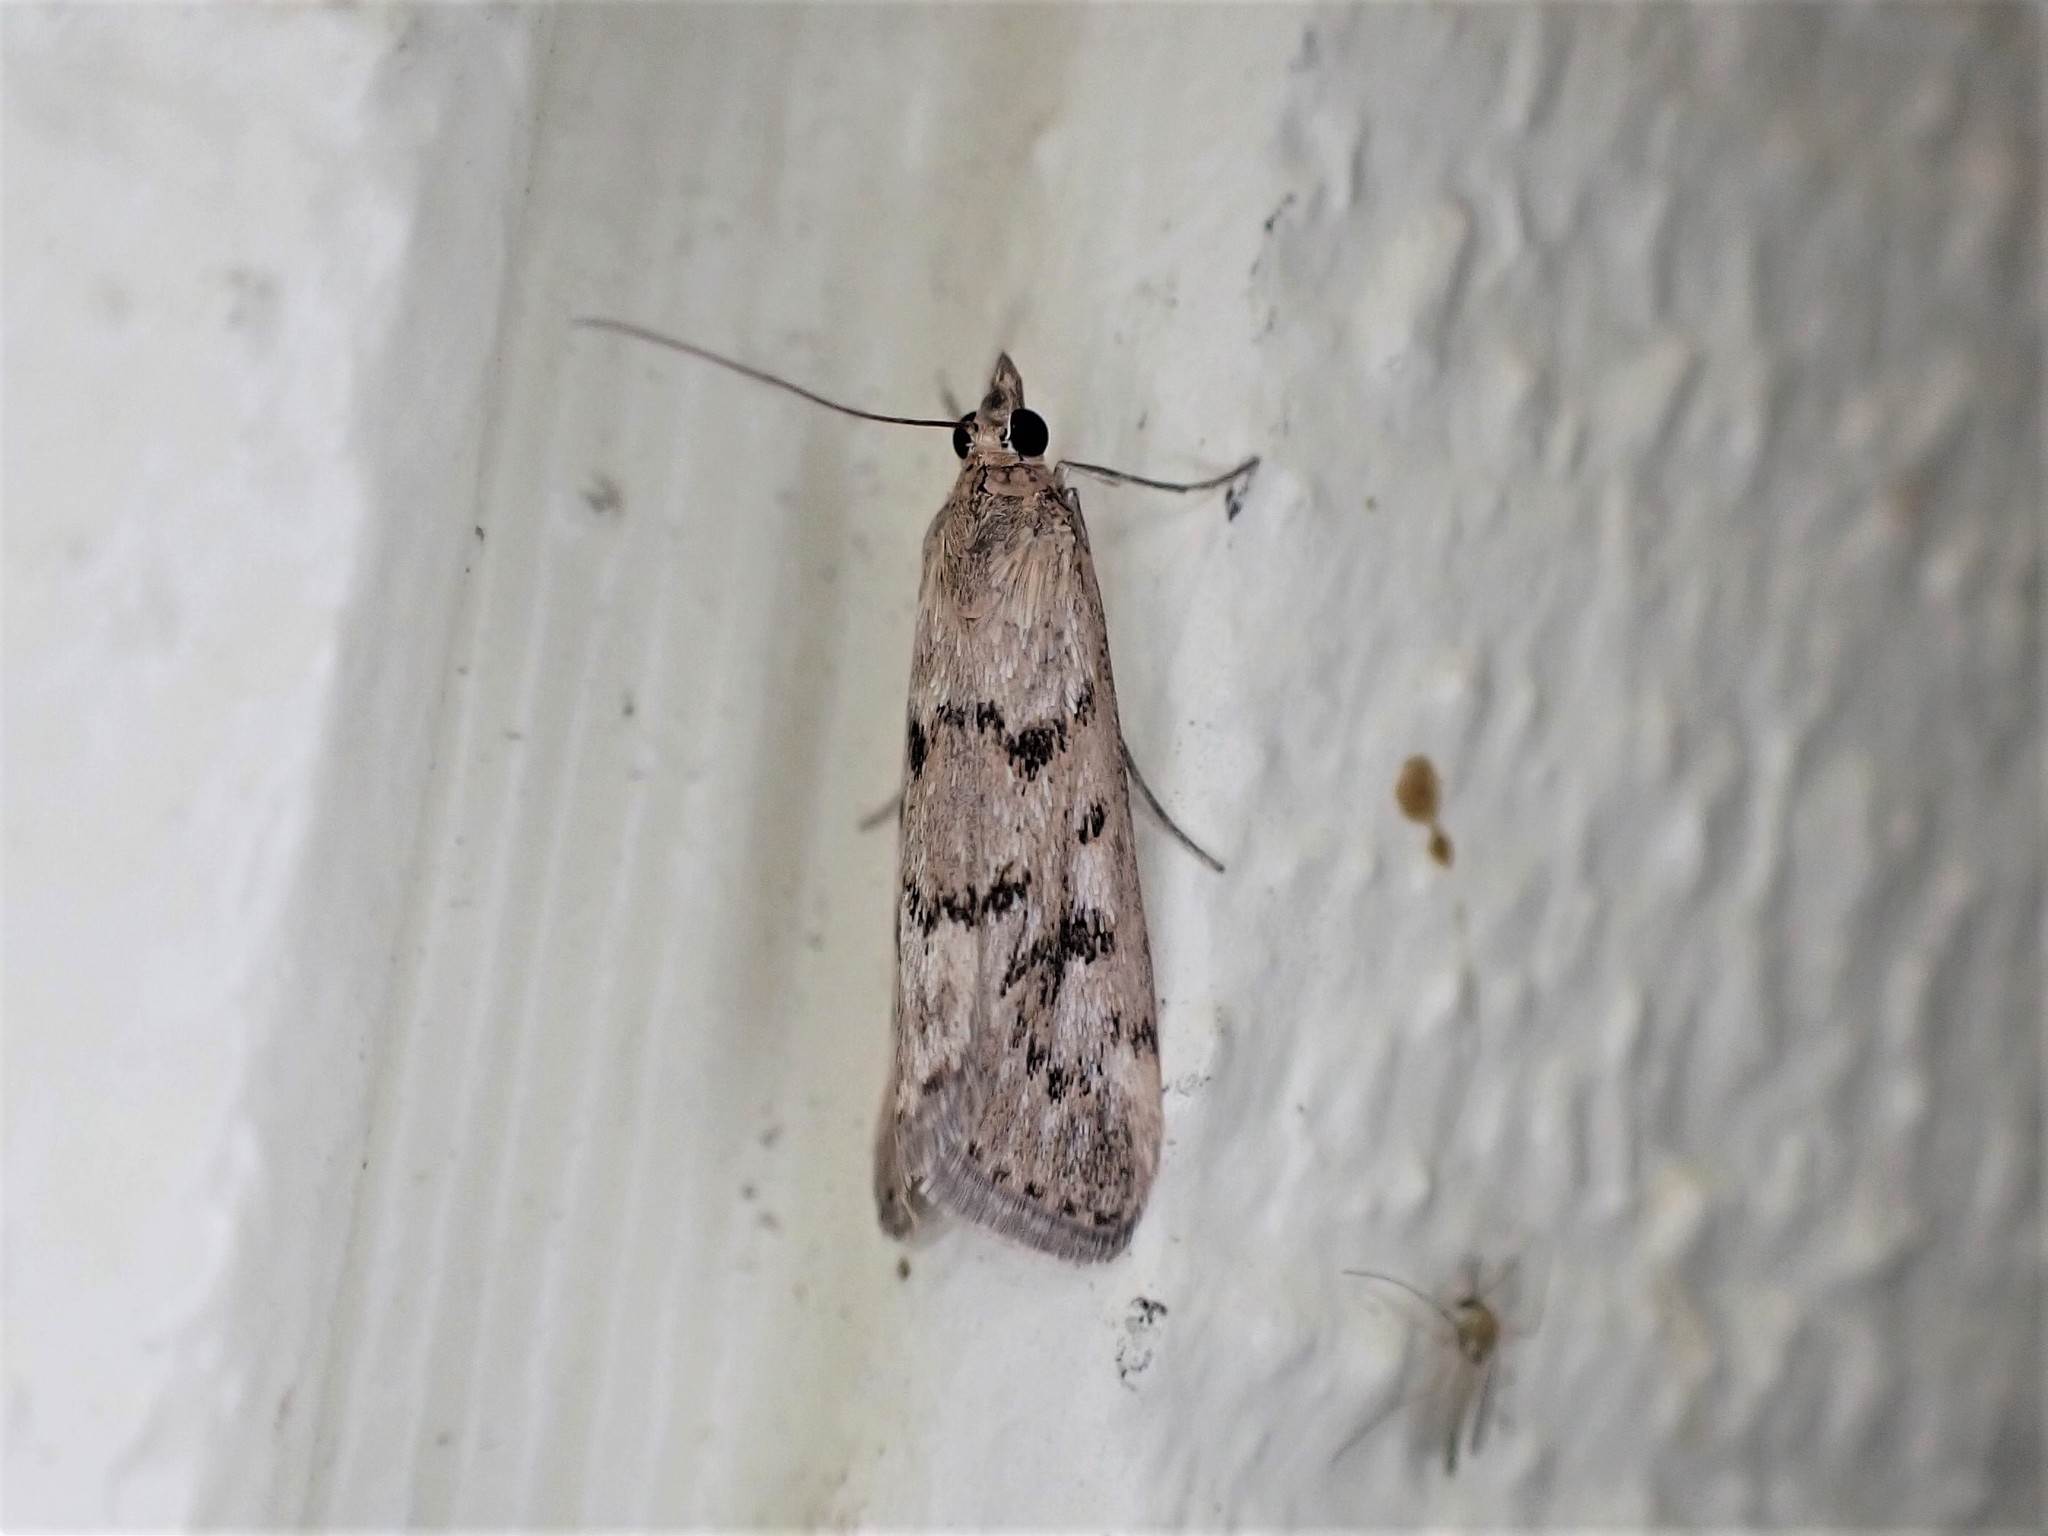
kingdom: Animalia
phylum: Arthropoda
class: Insecta
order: Lepidoptera
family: Crambidae
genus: Achyra
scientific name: Achyra affinitalis
